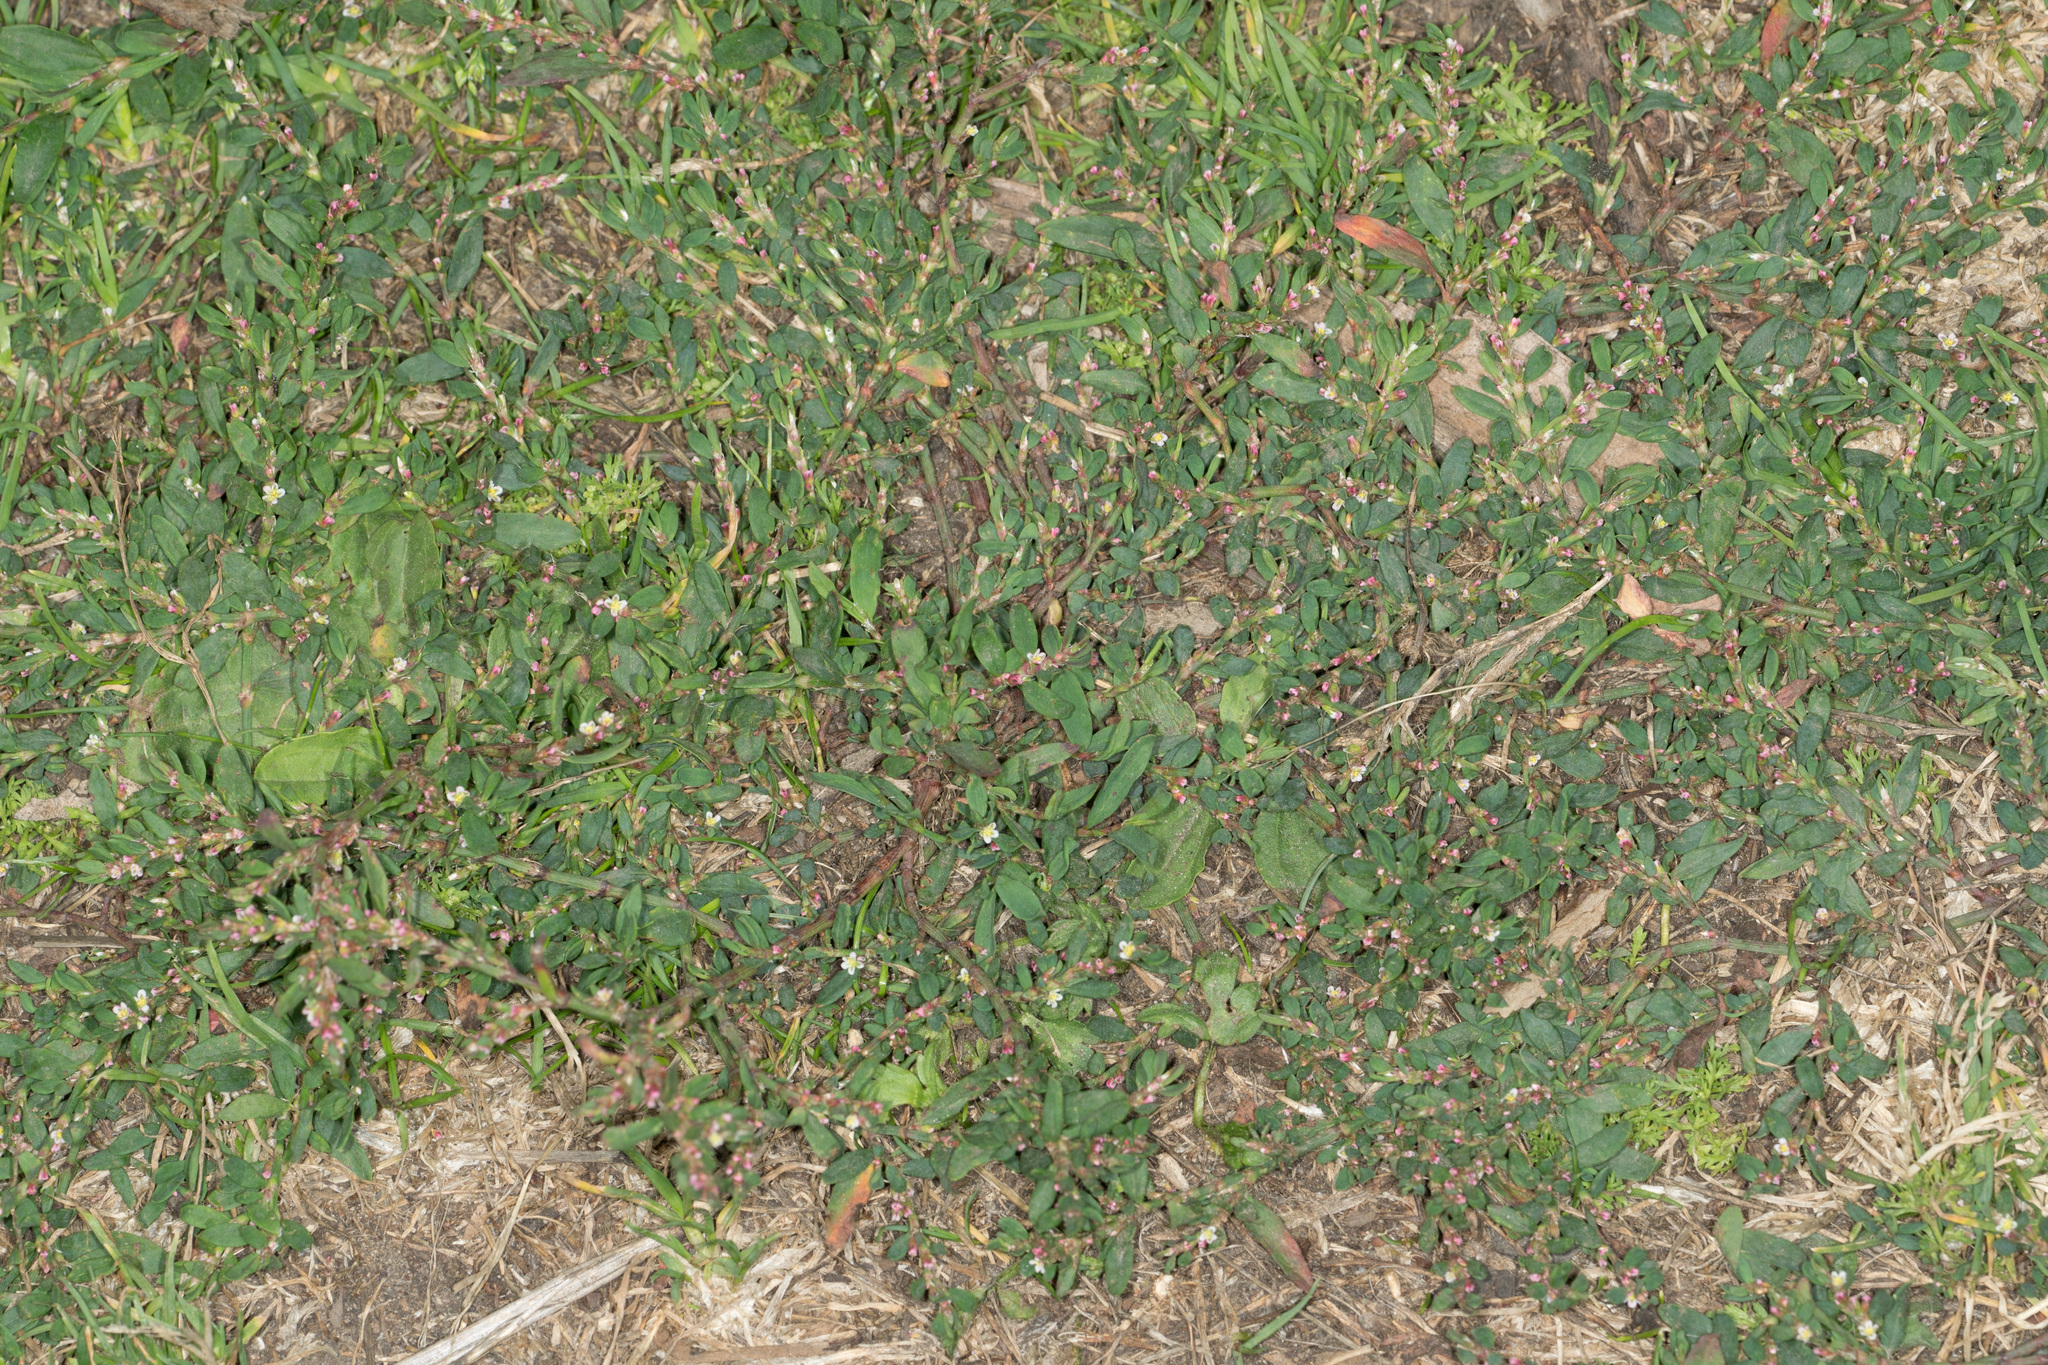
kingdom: Plantae
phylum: Tracheophyta
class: Magnoliopsida
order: Caryophyllales
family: Polygonaceae
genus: Polygonum
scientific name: Polygonum aviculare
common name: Prostrate knotweed
